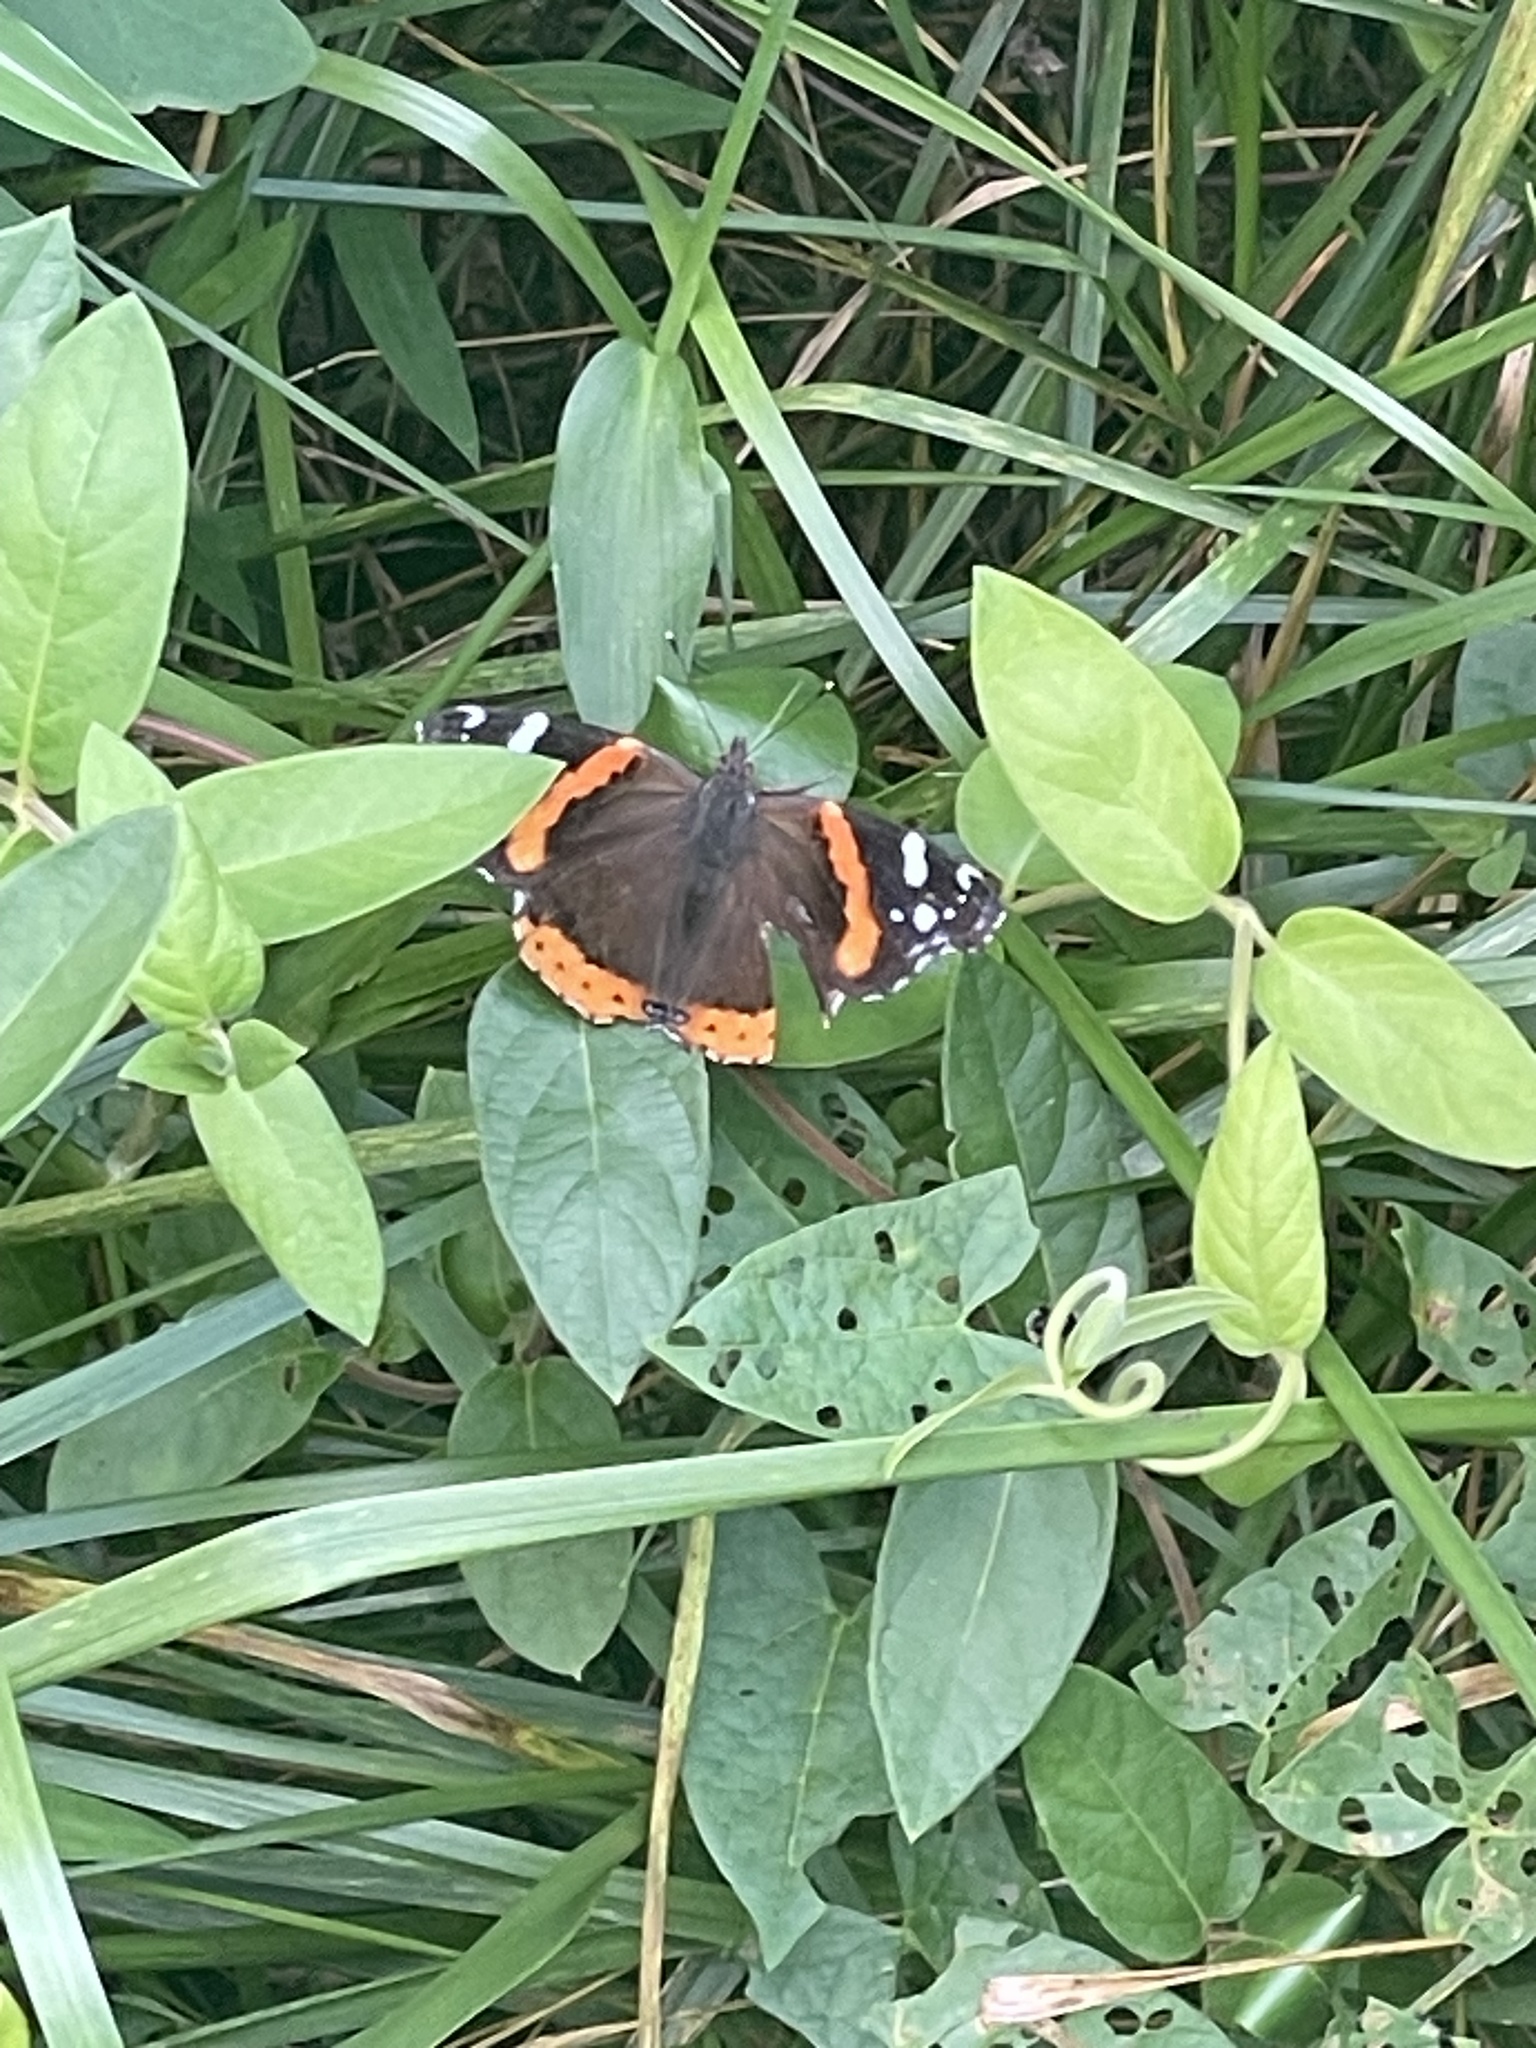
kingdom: Animalia
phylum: Arthropoda
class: Insecta
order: Lepidoptera
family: Nymphalidae
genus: Vanessa
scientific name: Vanessa atalanta
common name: Red admiral
